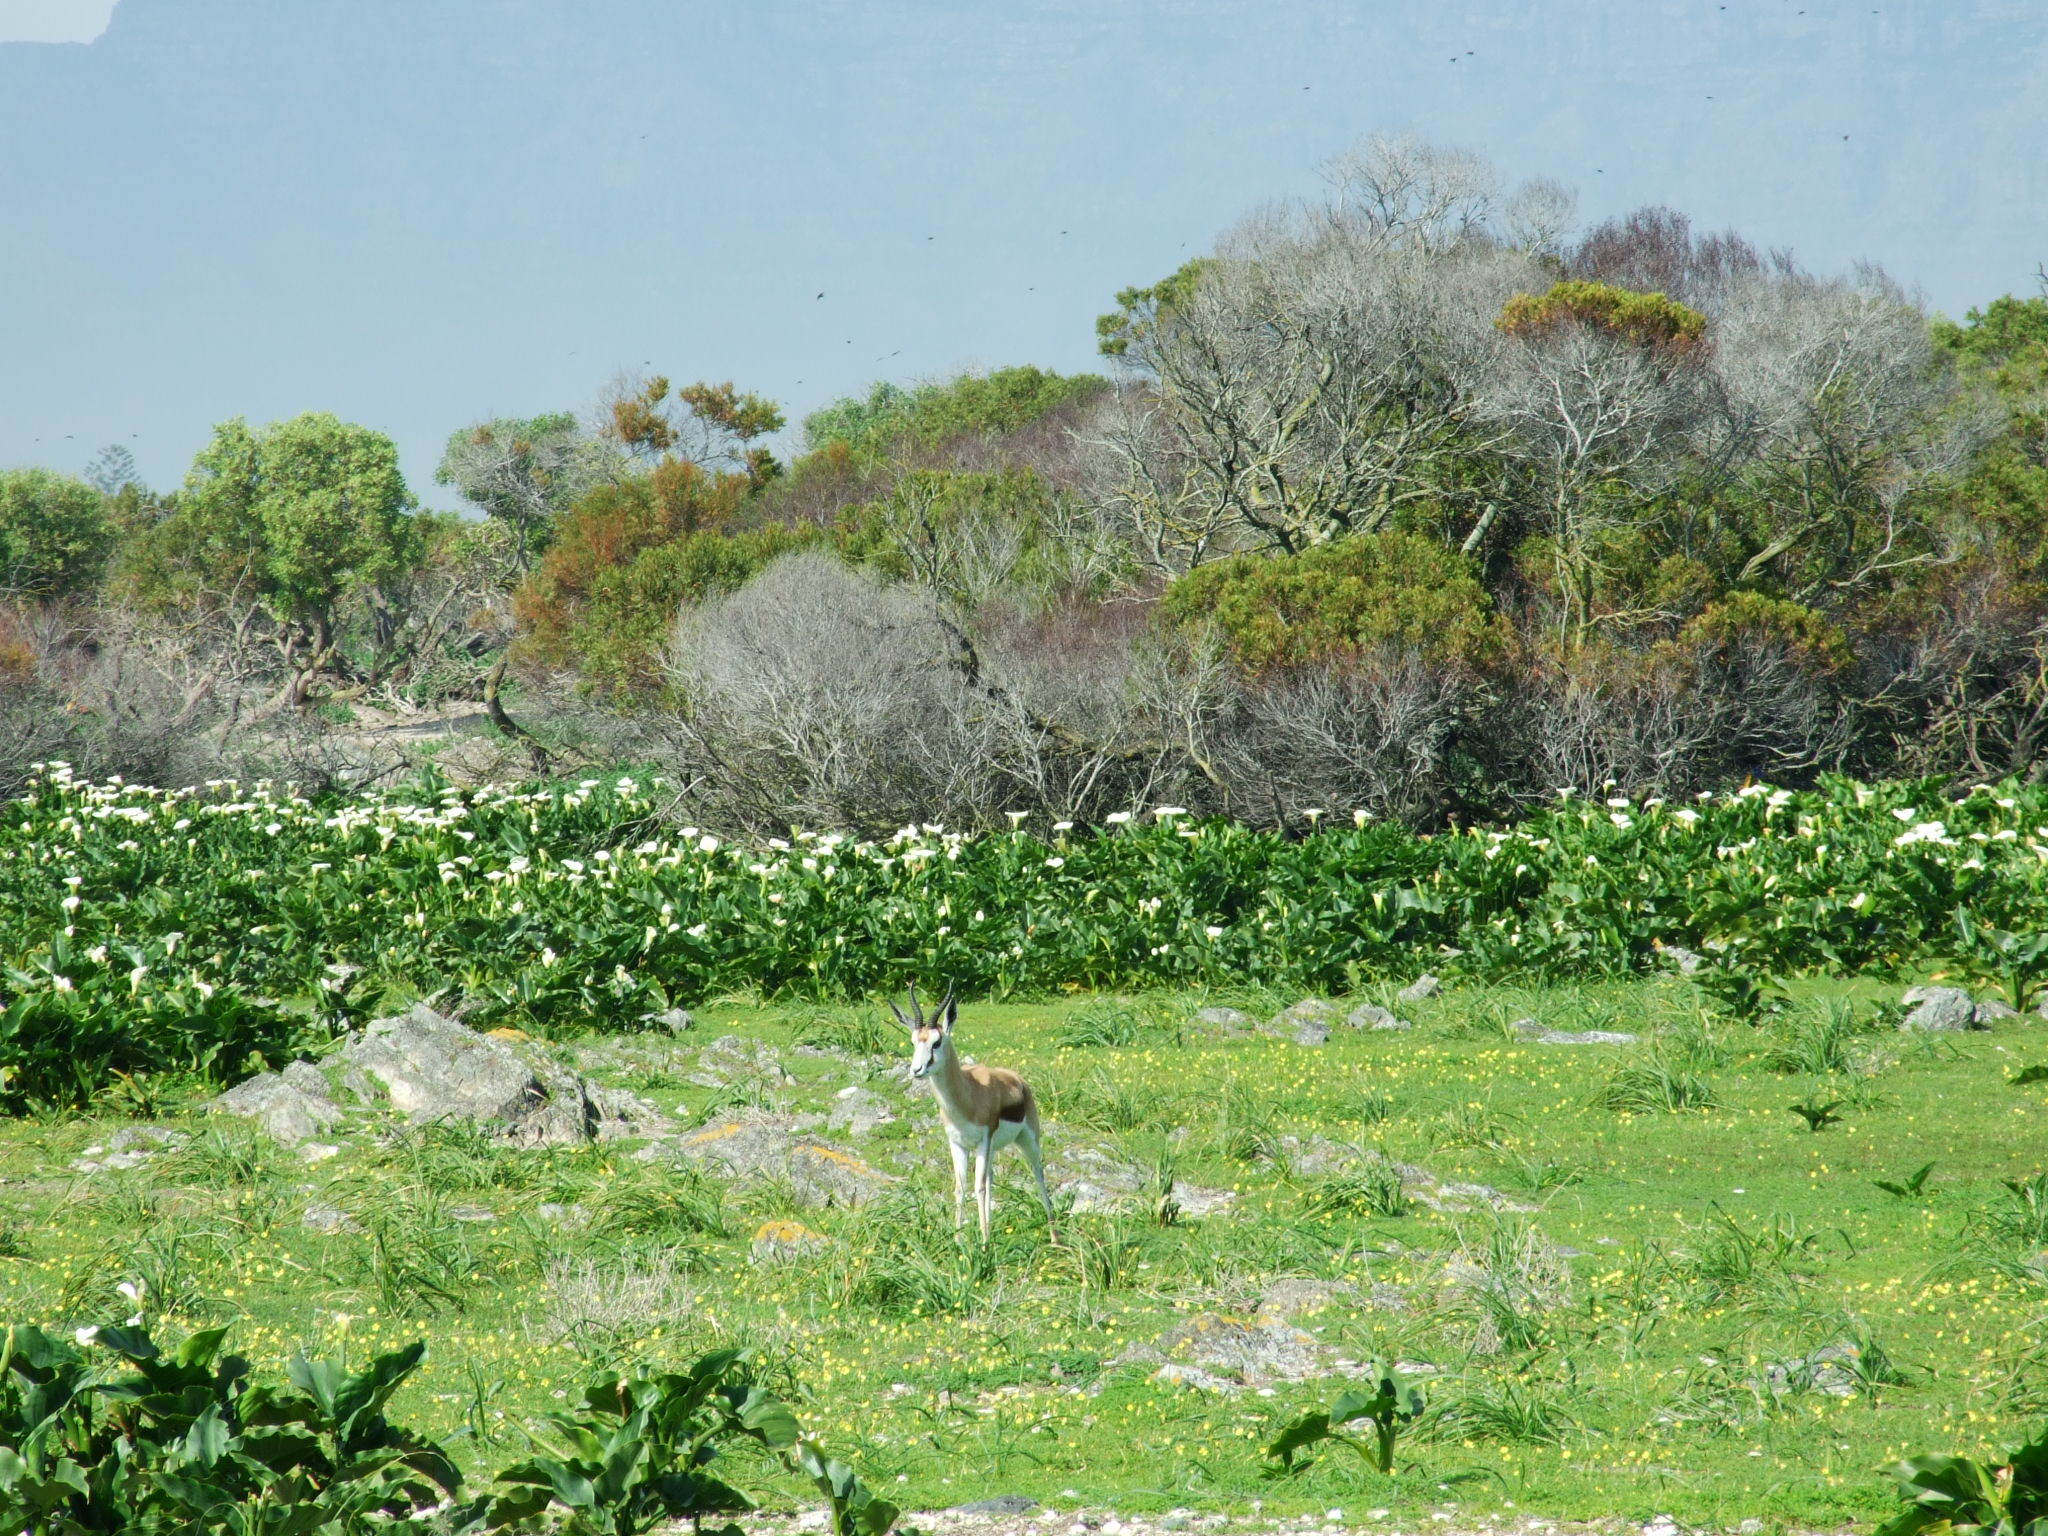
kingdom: Animalia
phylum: Chordata
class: Mammalia
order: Artiodactyla
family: Bovidae
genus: Antidorcas
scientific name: Antidorcas marsupialis
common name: Springbok
